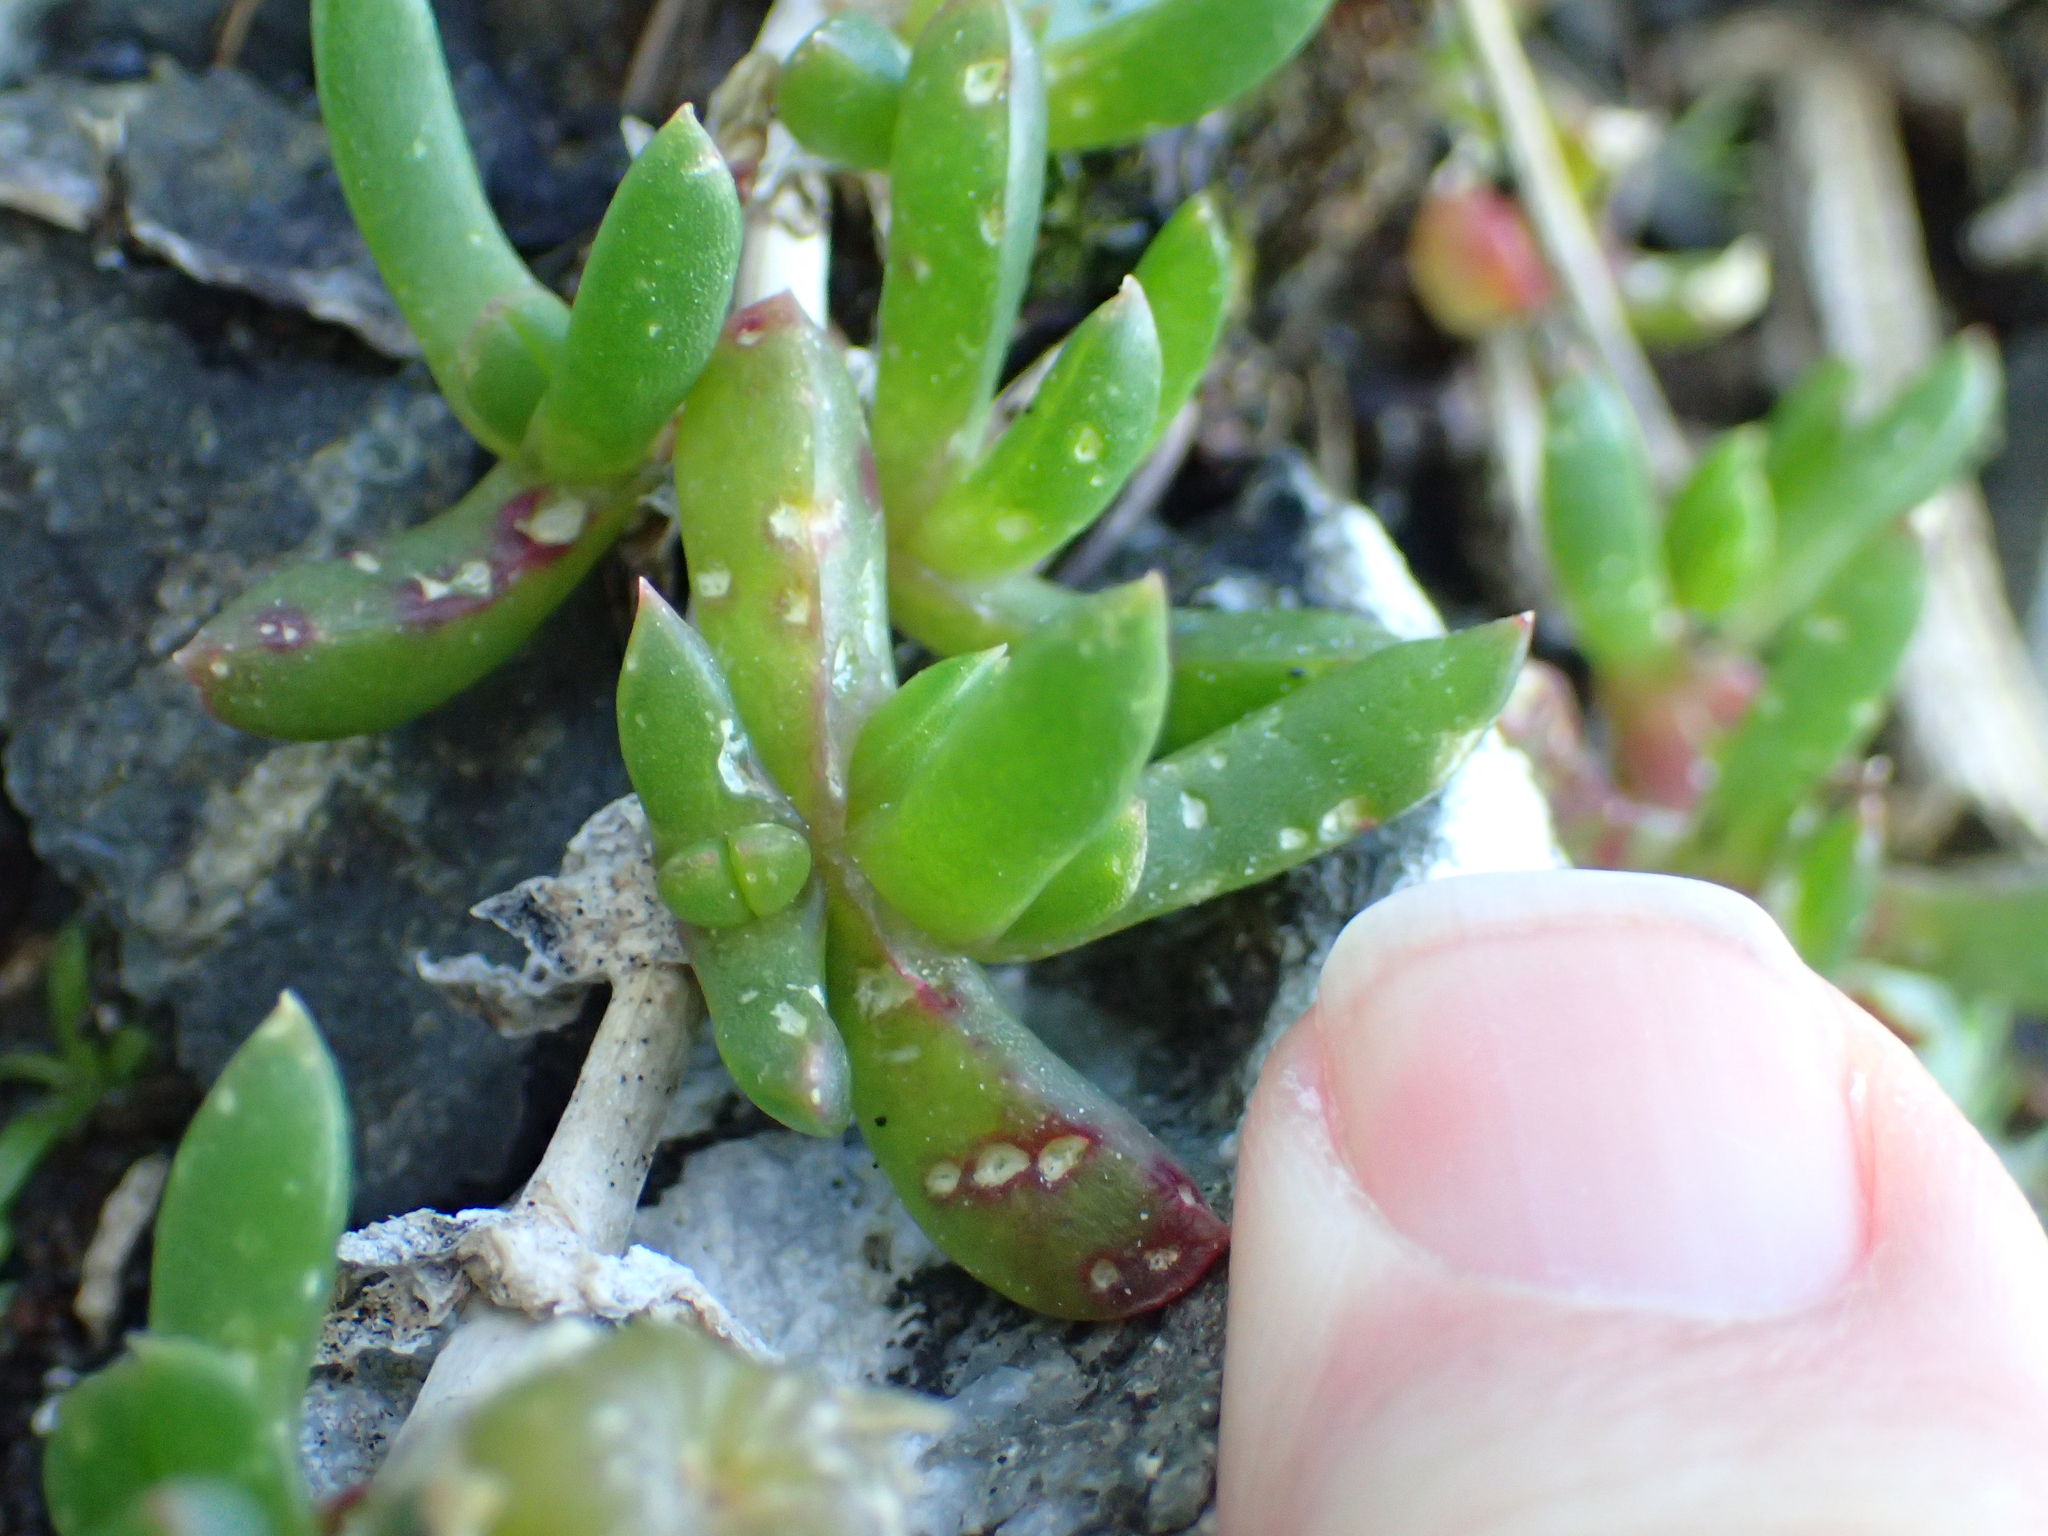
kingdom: Plantae
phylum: Tracheophyta
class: Magnoliopsida
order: Caryophyllales
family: Aizoaceae
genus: Disphyma
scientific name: Disphyma australe
